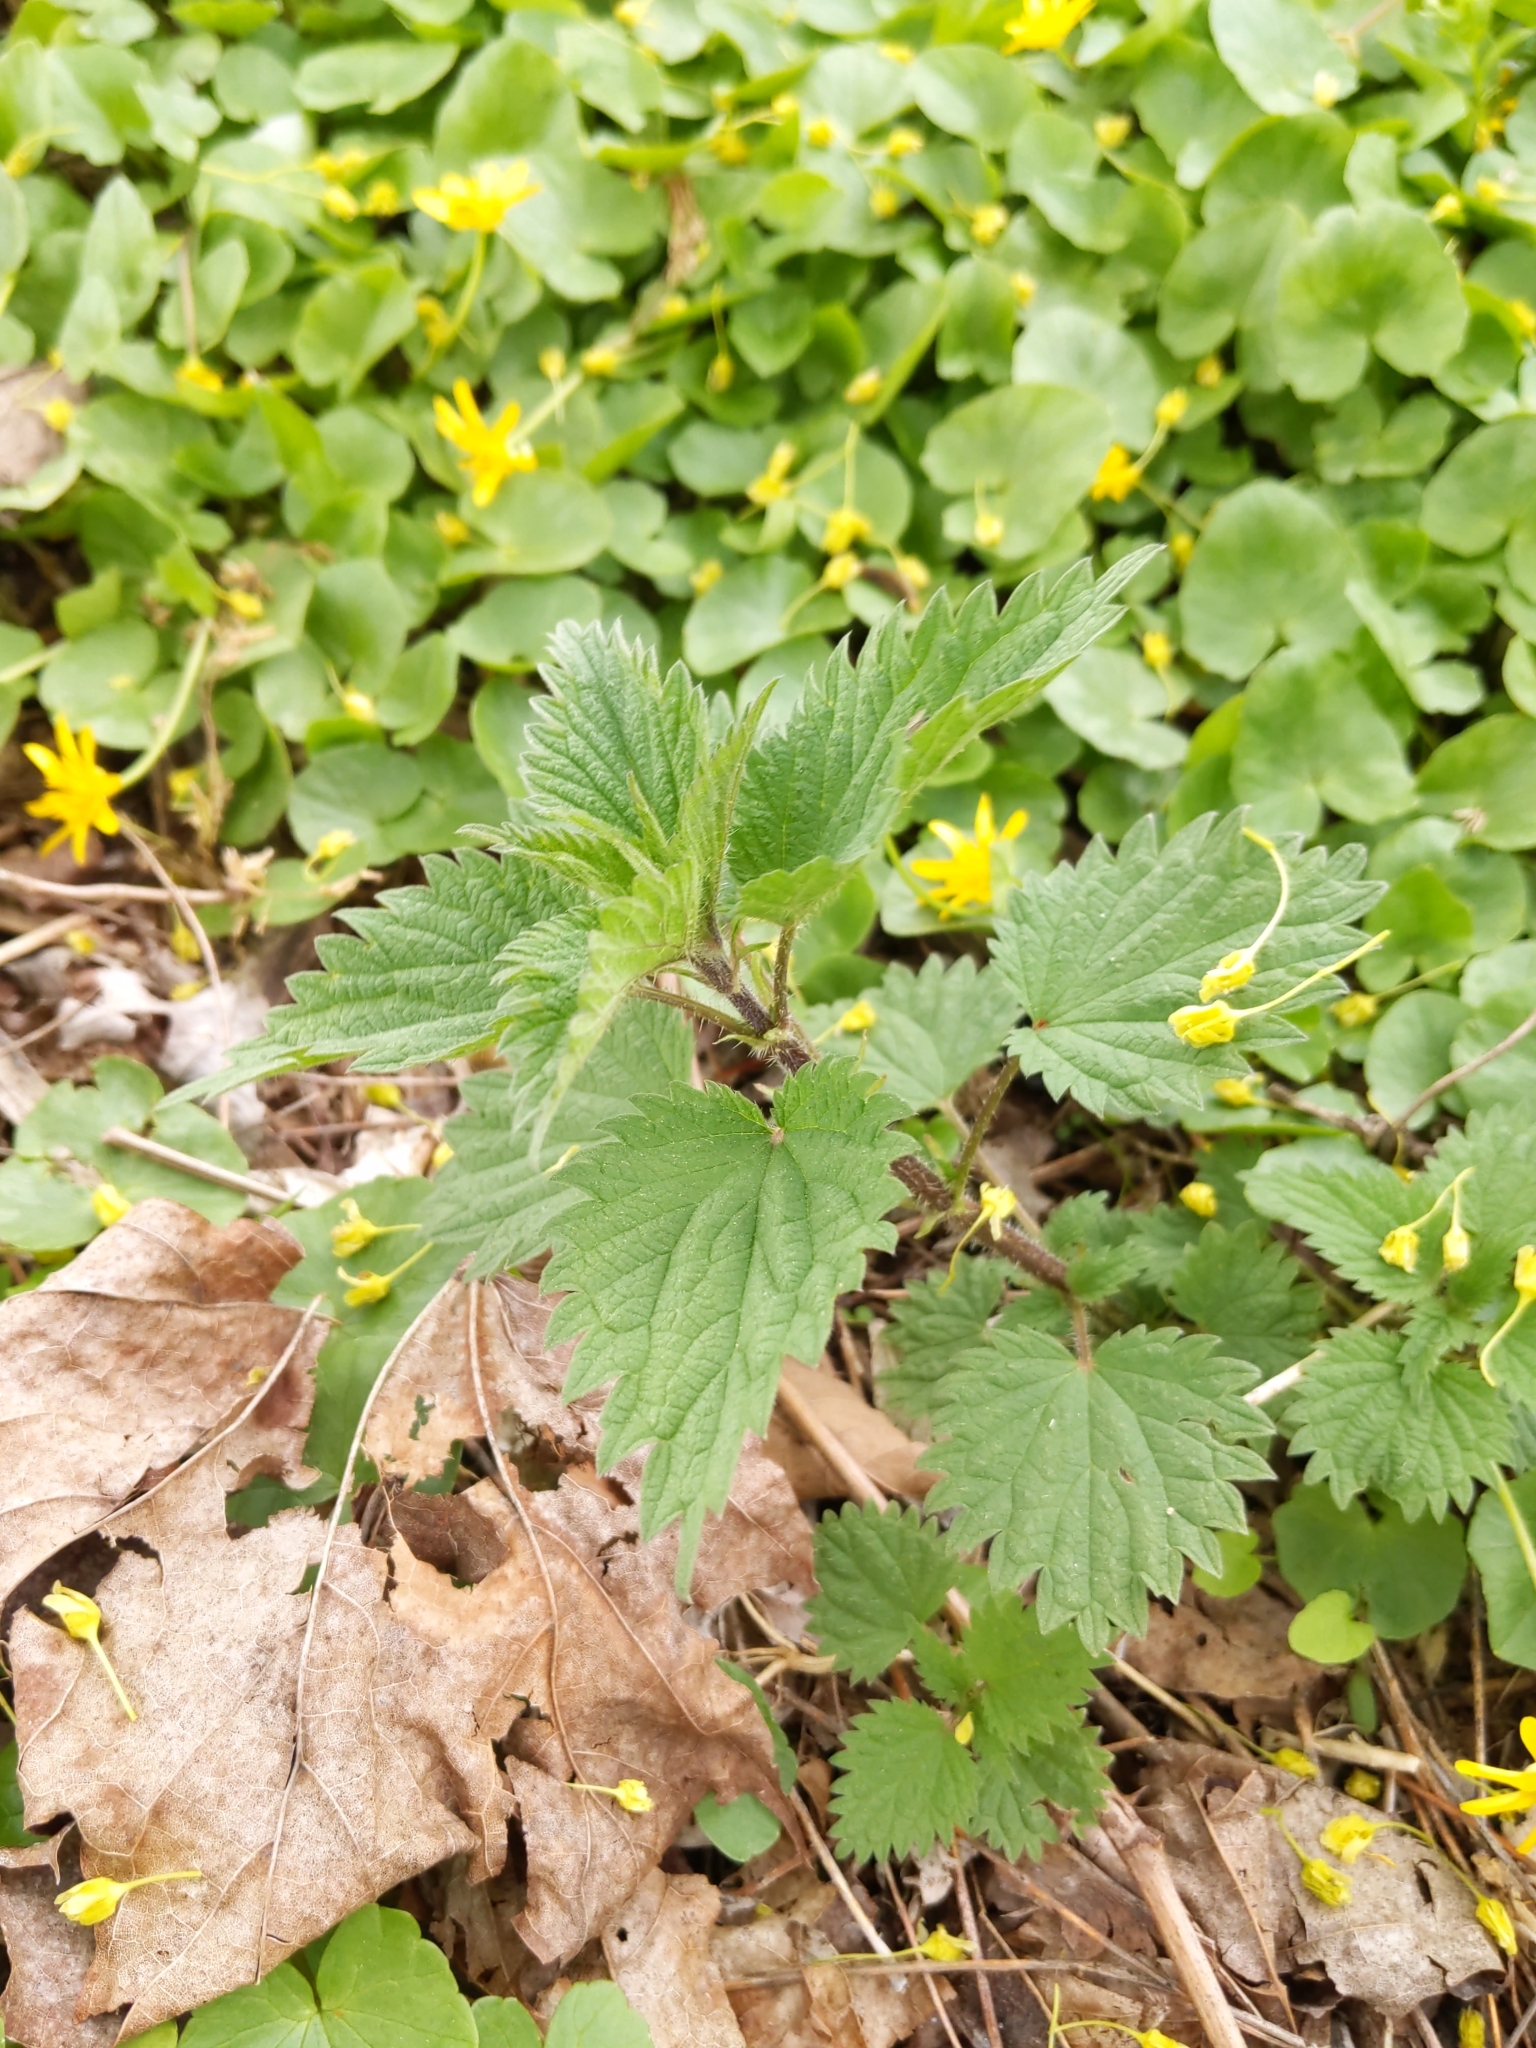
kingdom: Plantae
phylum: Tracheophyta
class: Magnoliopsida
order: Rosales
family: Urticaceae
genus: Urtica
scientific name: Urtica dioica
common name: Common nettle
